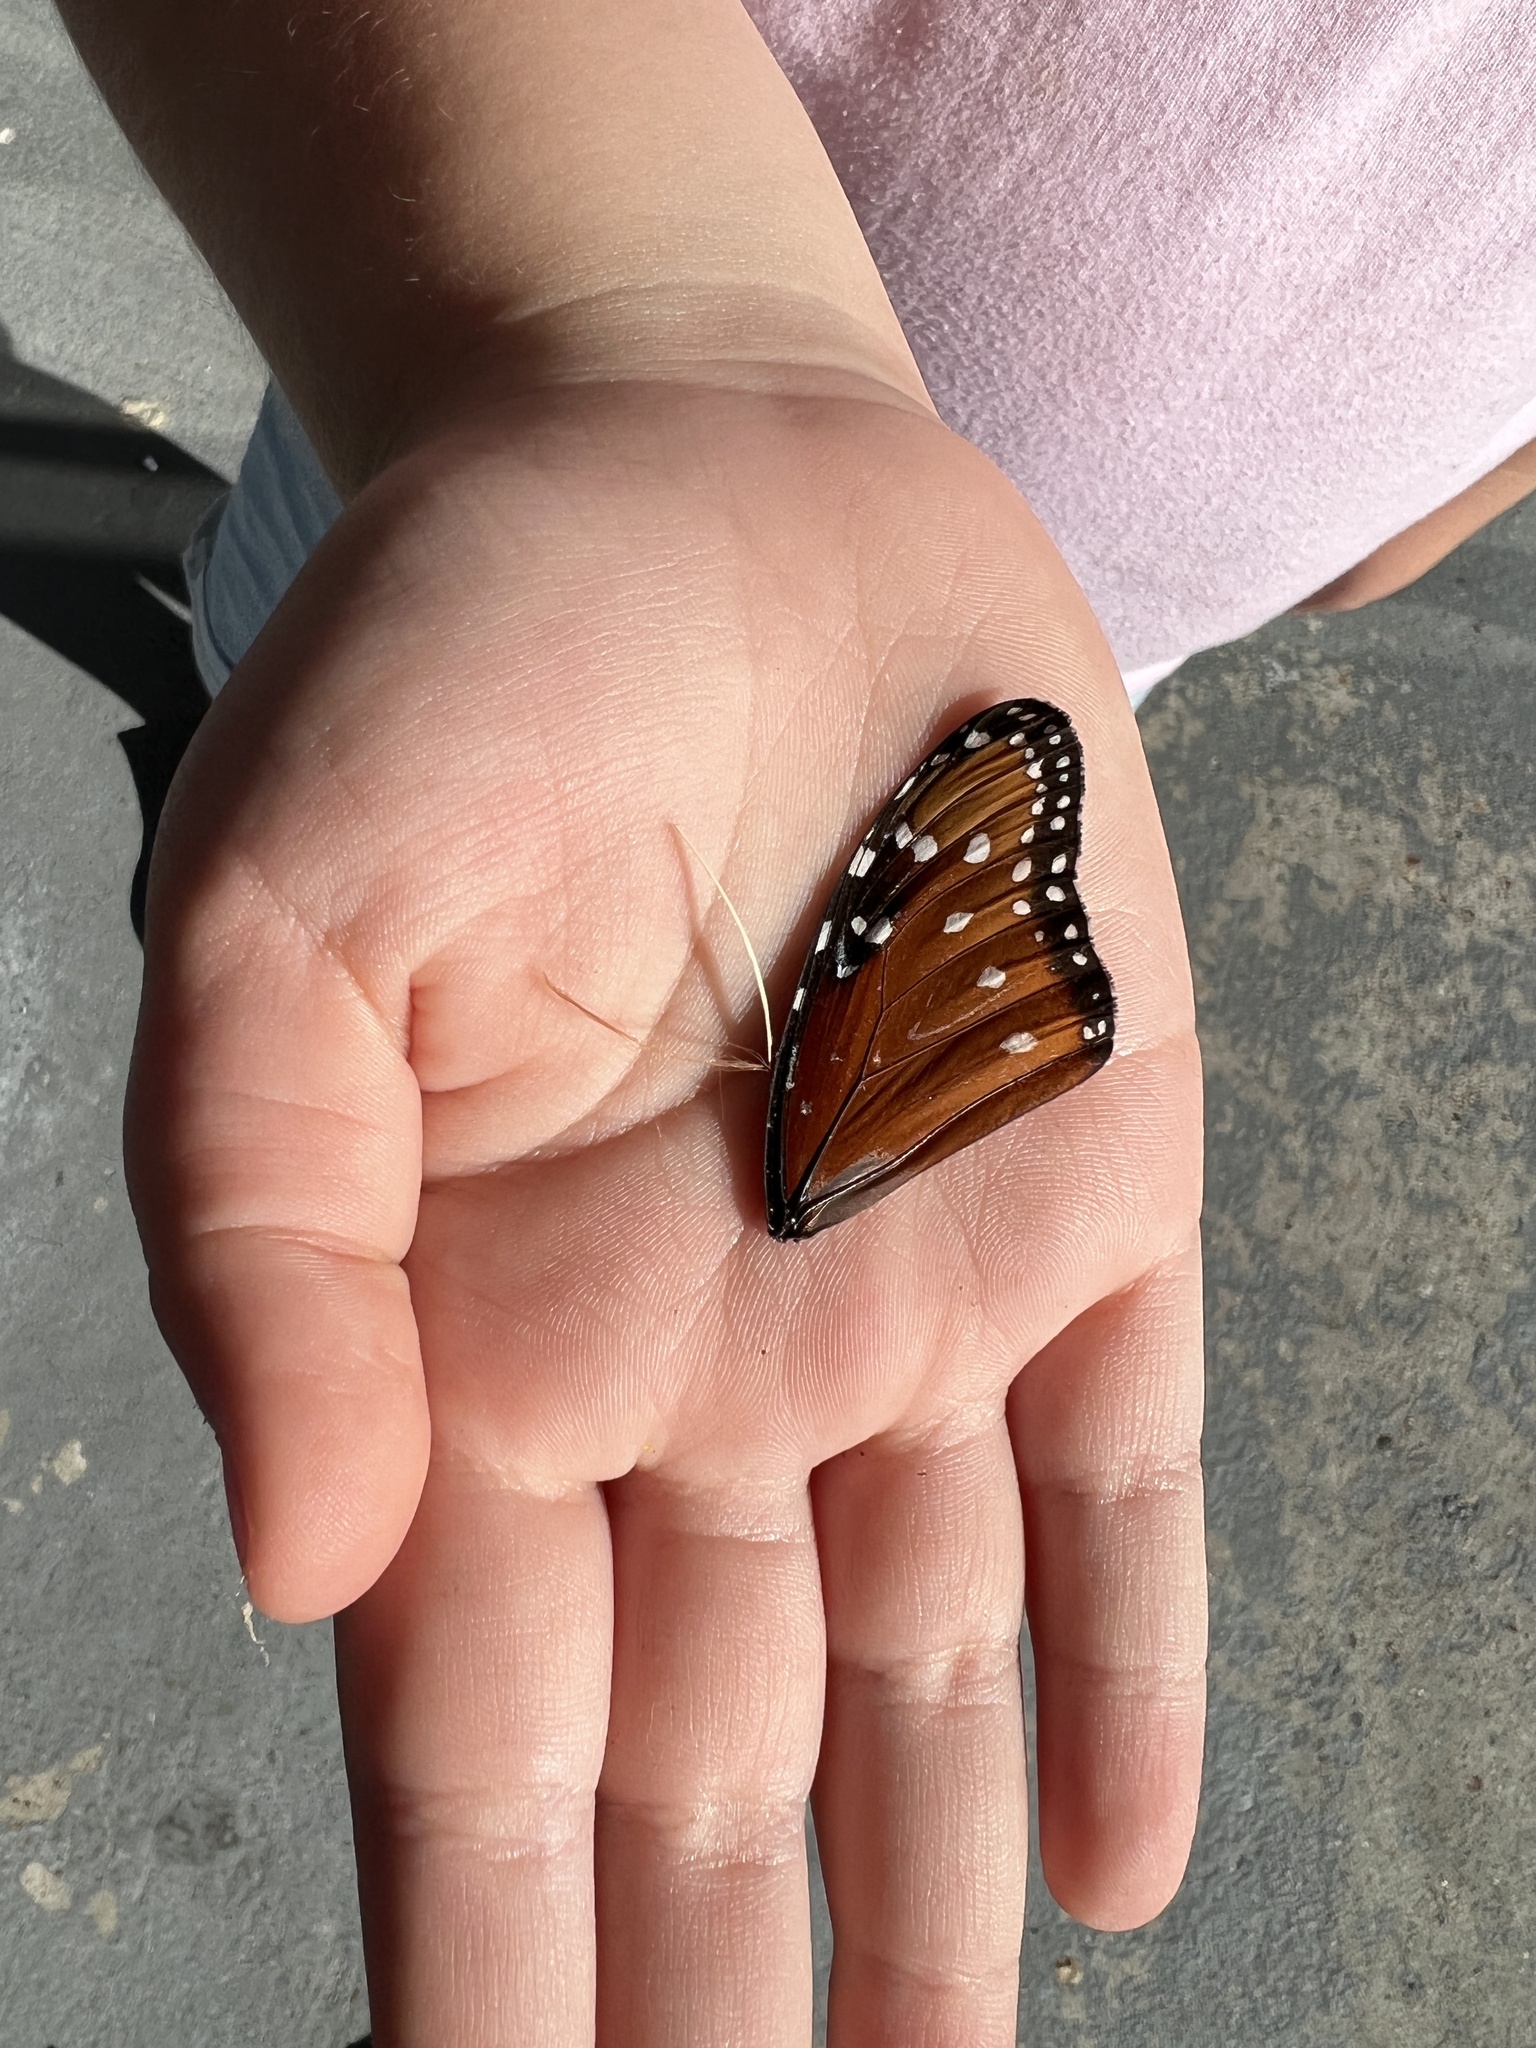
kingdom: Animalia
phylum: Arthropoda
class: Insecta
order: Lepidoptera
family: Nymphalidae
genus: Danaus
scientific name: Danaus gilippus
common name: Queen
